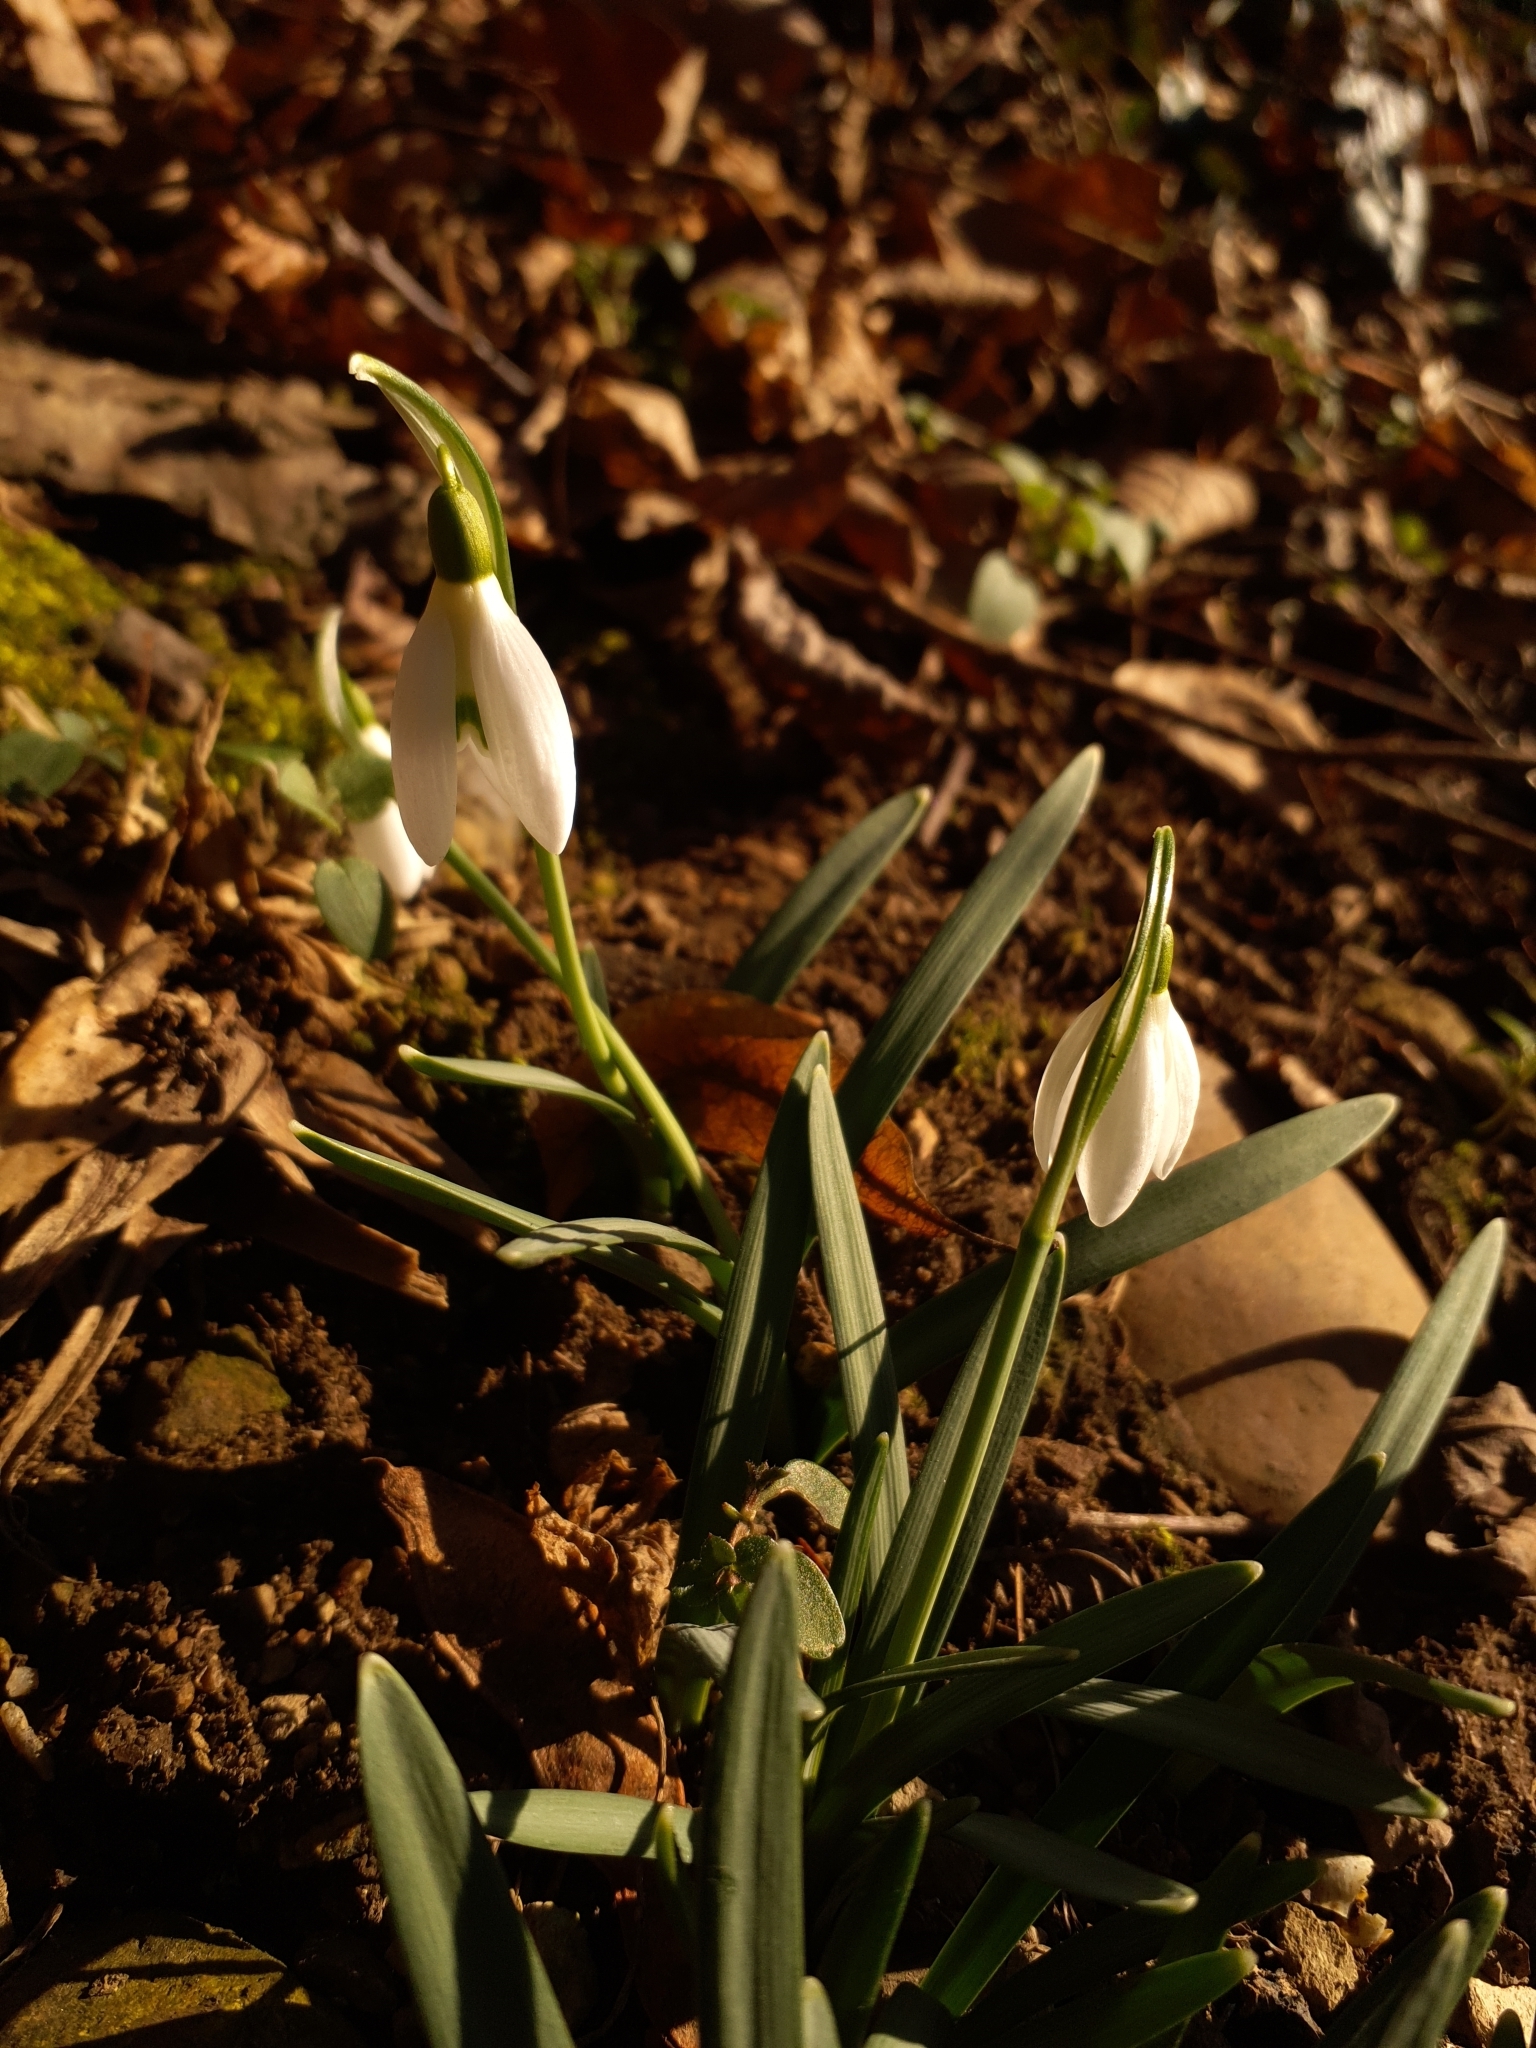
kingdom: Plantae
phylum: Tracheophyta
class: Liliopsida
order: Asparagales
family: Amaryllidaceae
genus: Galanthus
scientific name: Galanthus nivalis
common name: Snowdrop
